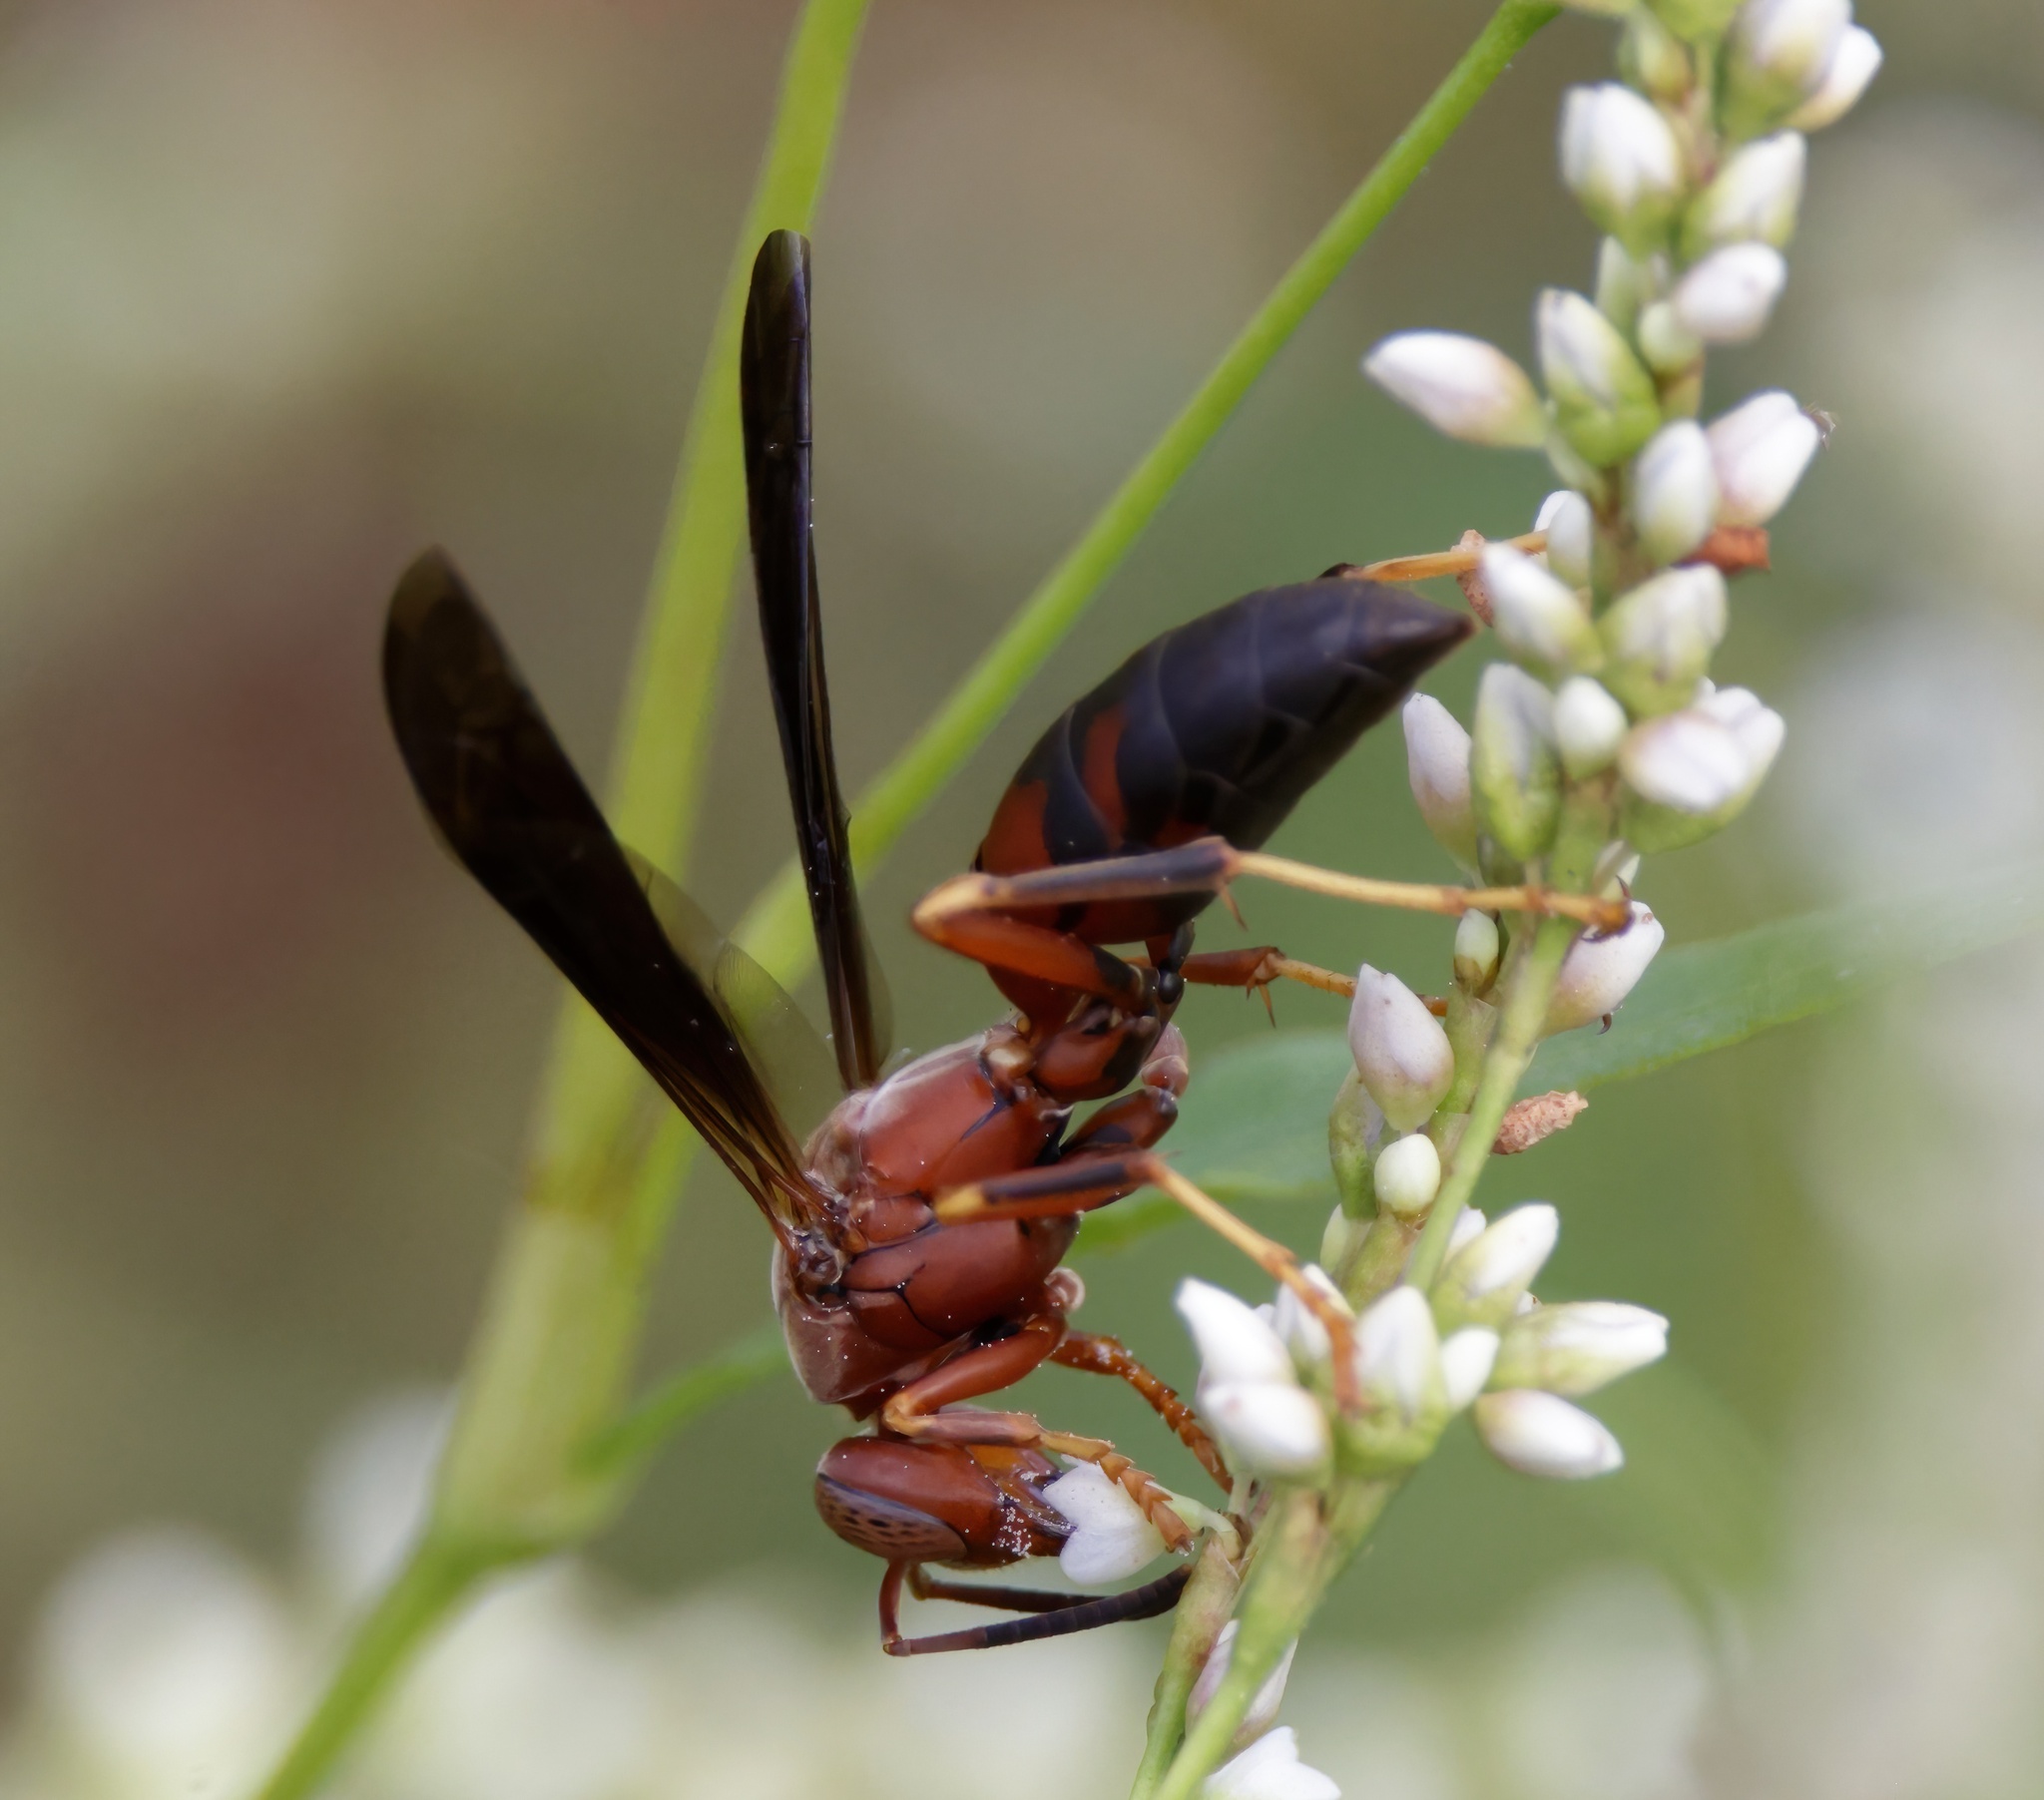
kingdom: Animalia
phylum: Arthropoda
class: Insecta
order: Hymenoptera
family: Eumenidae
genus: Polistes
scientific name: Polistes metricus
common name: Metric paper wasp
